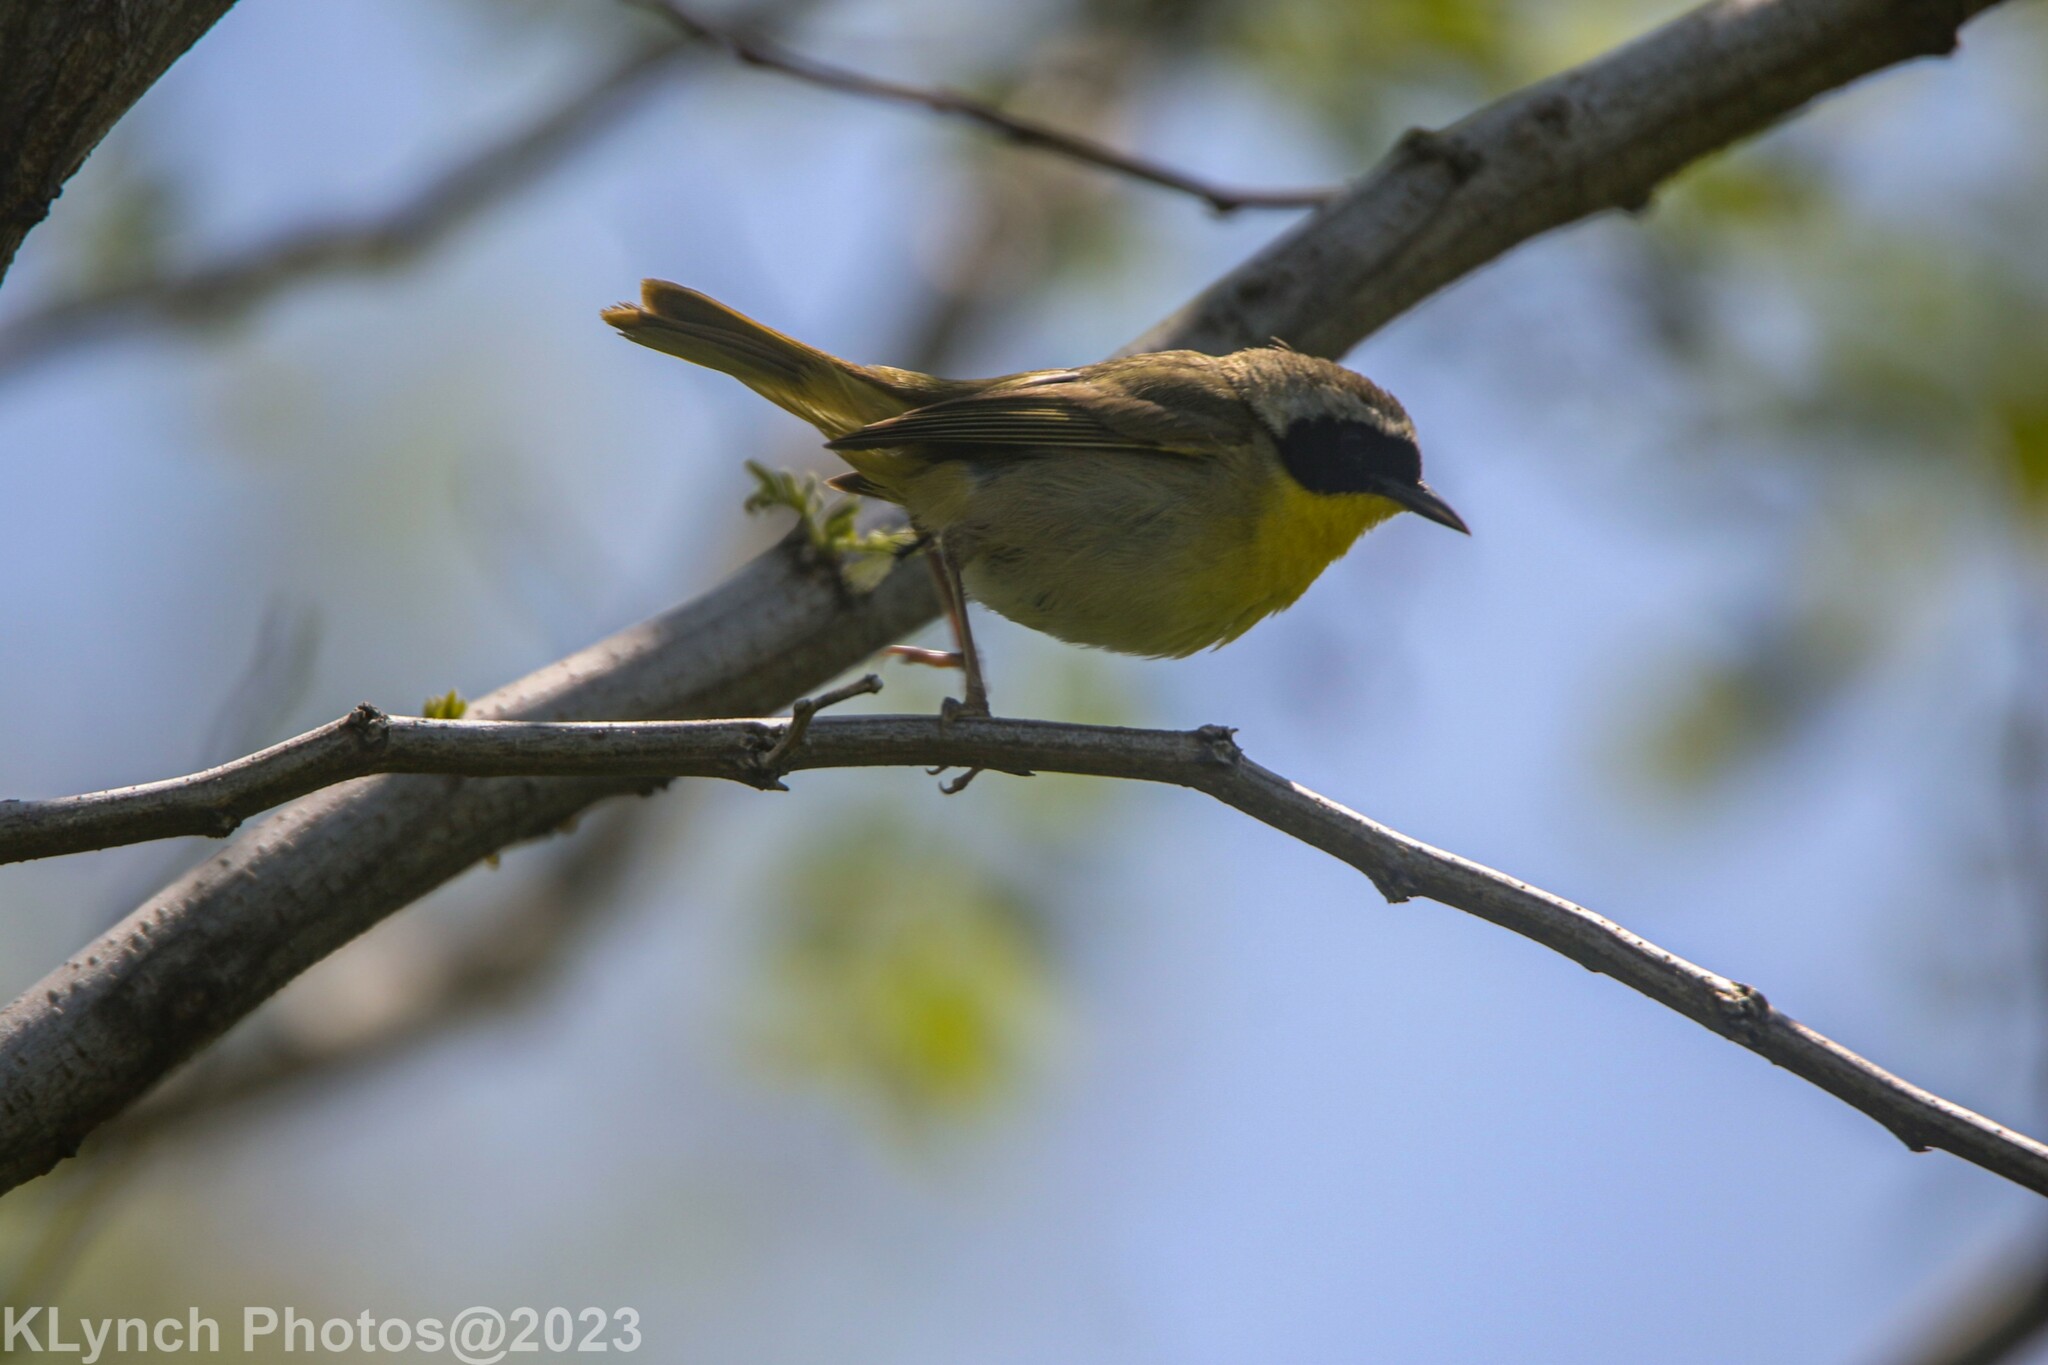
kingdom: Animalia
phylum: Chordata
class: Aves
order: Passeriformes
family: Parulidae
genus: Geothlypis
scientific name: Geothlypis trichas
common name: Common yellowthroat
